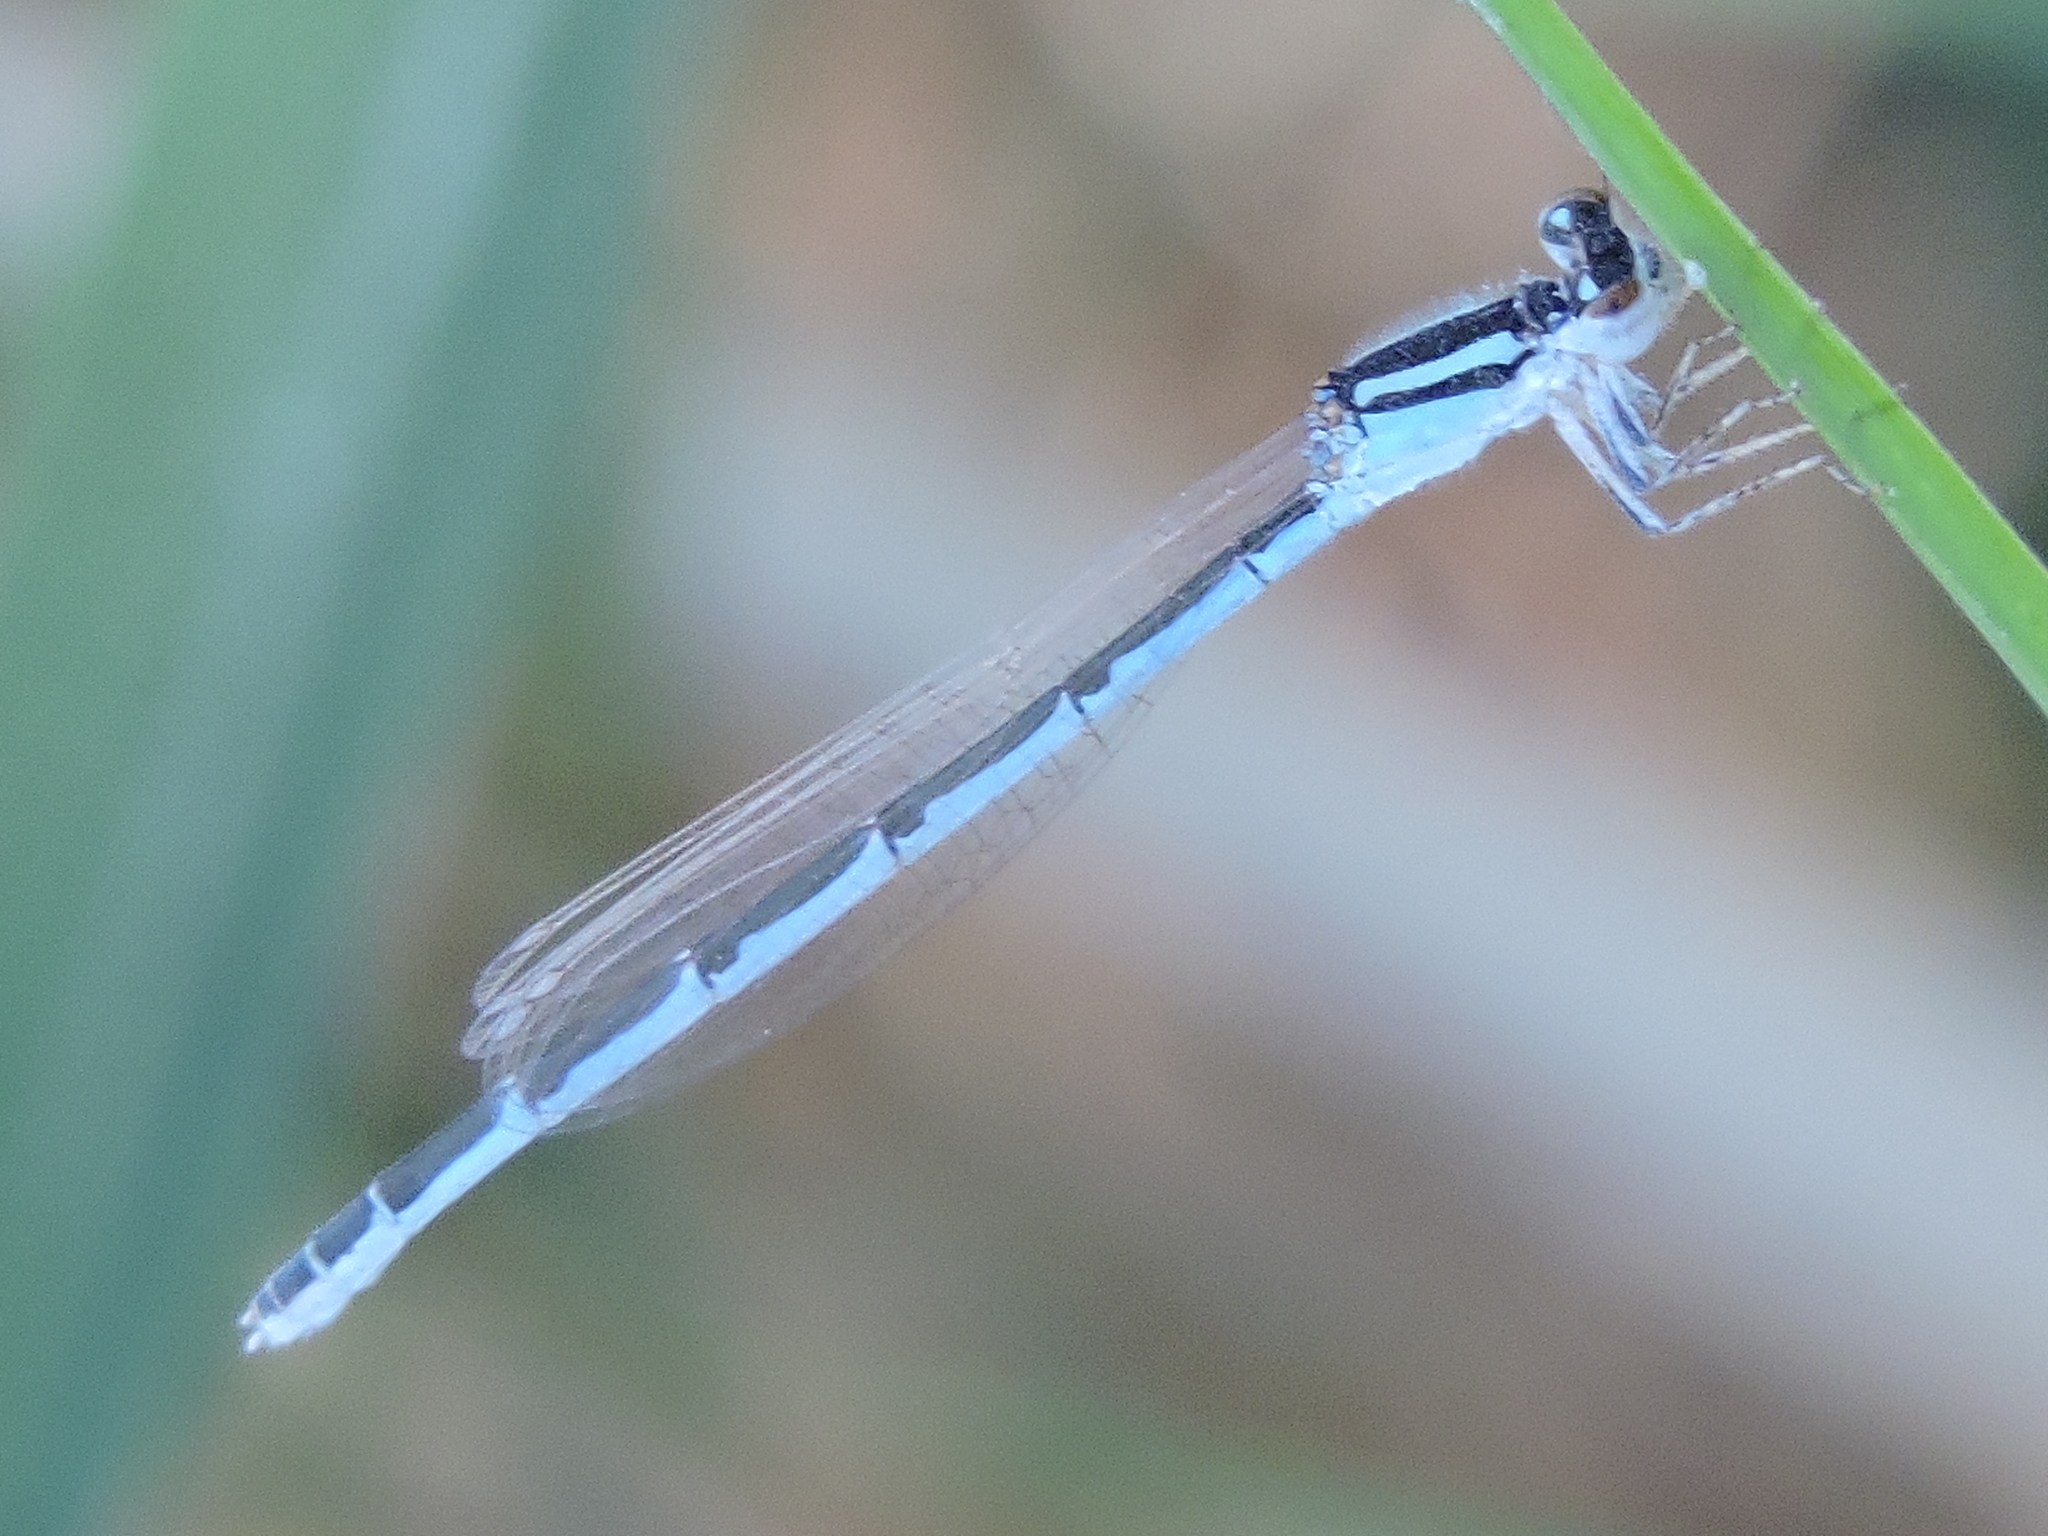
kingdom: Animalia
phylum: Arthropoda
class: Insecta
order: Odonata
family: Coenagrionidae
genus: Enallagma
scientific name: Enallagma civile
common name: Damselfly
